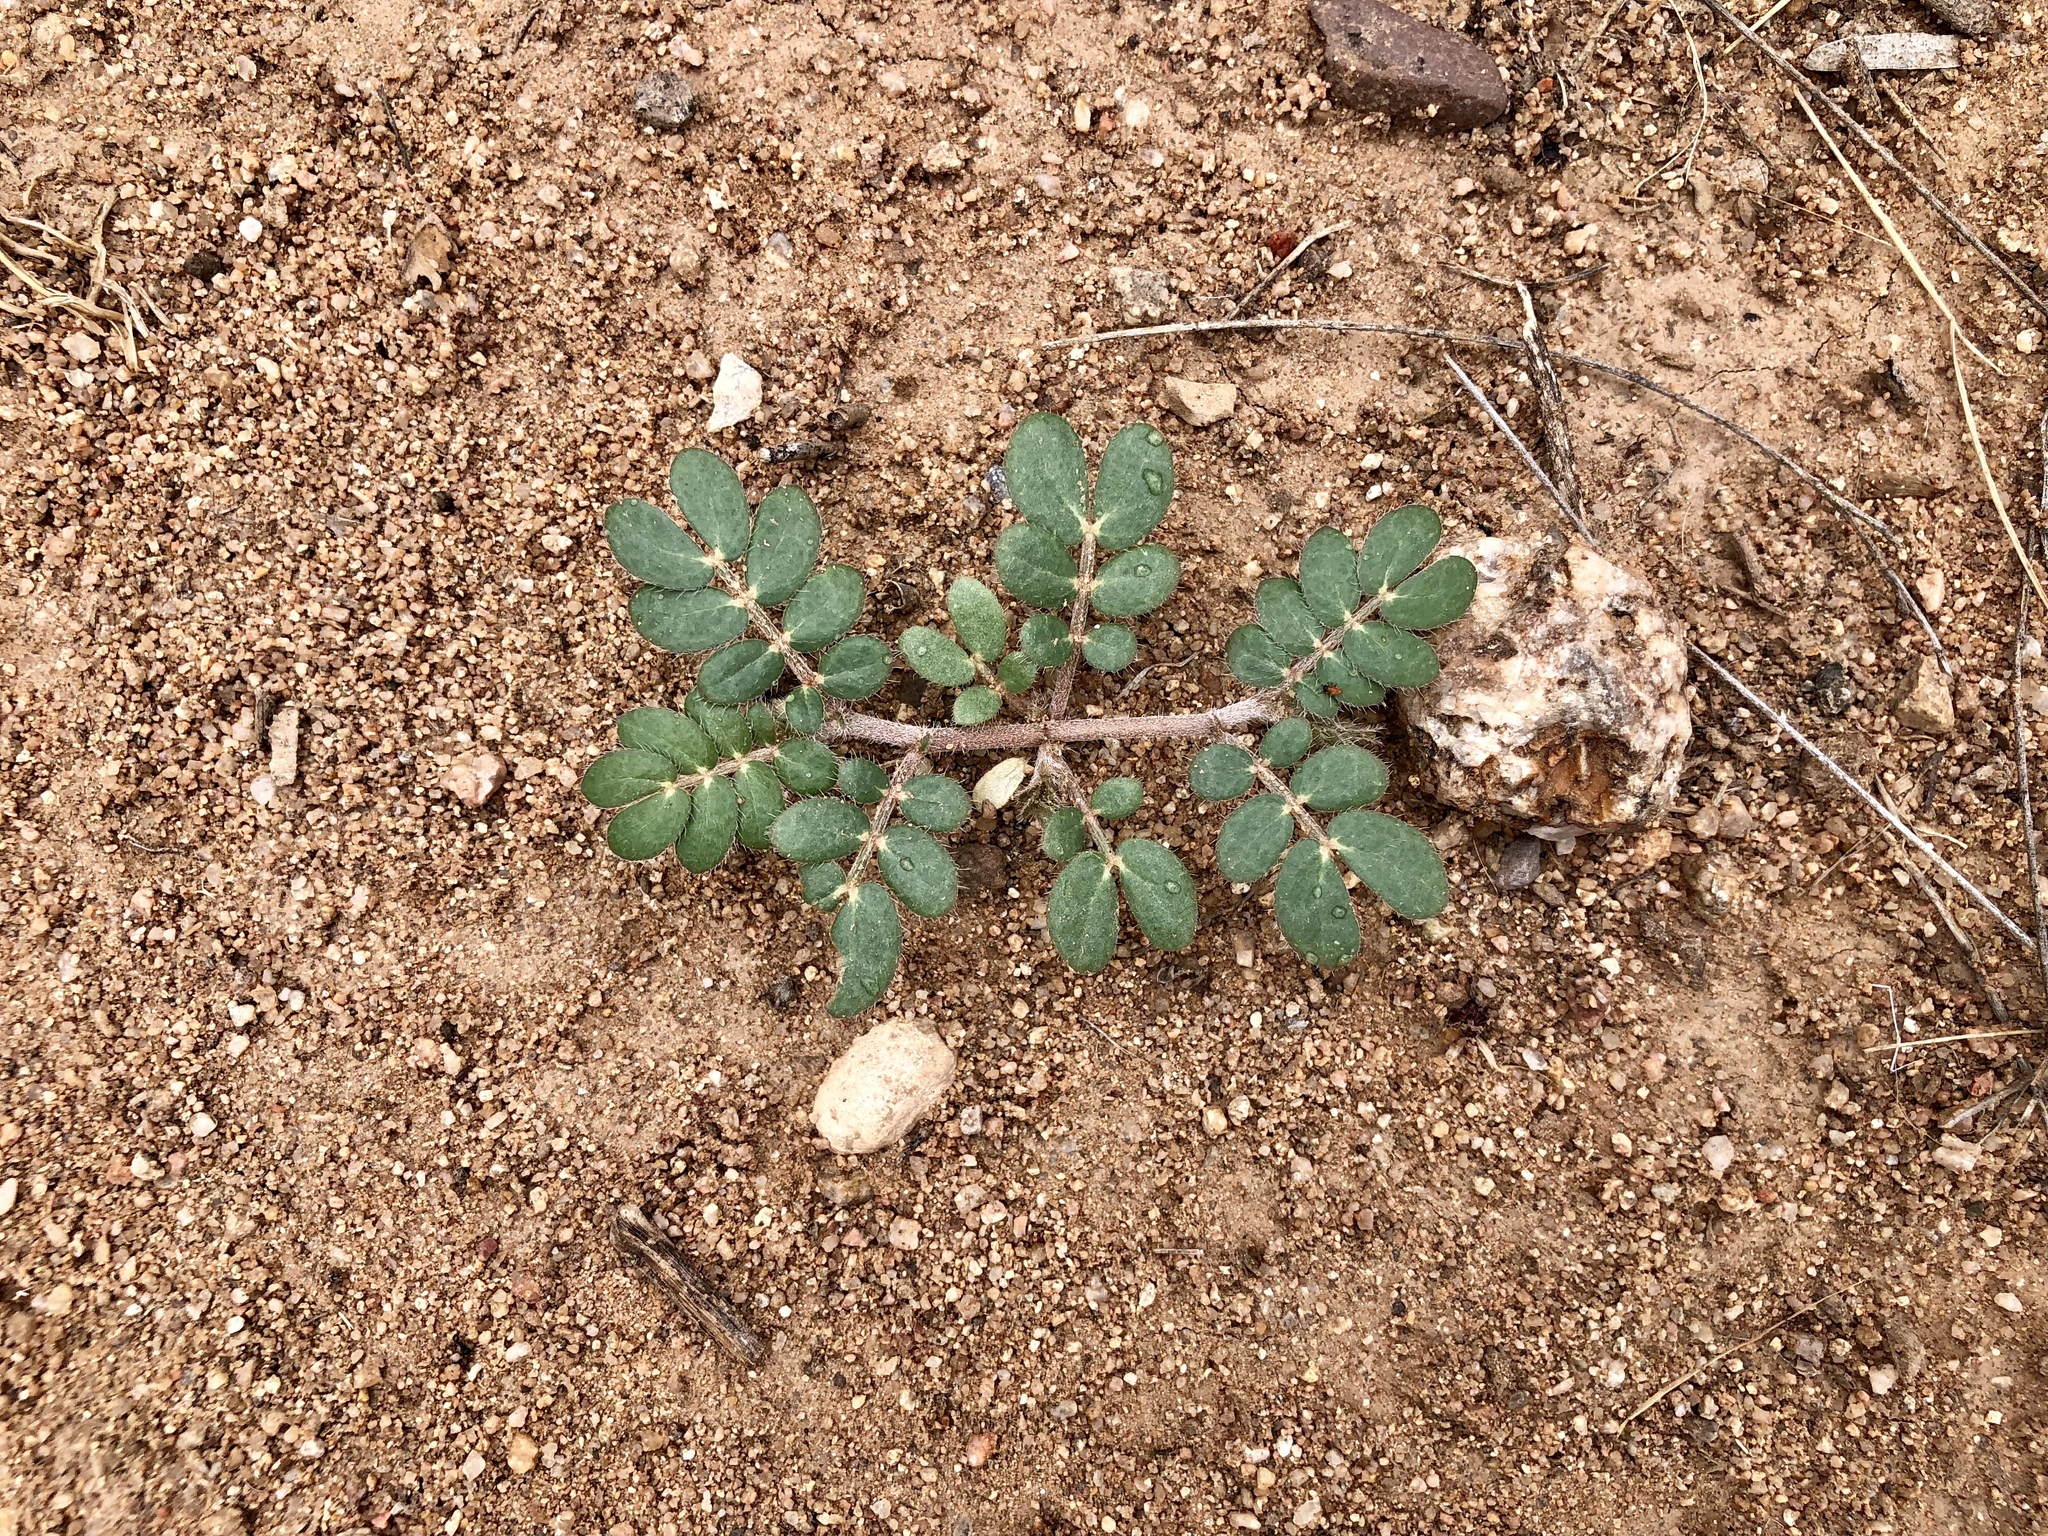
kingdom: Plantae
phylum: Tracheophyta
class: Magnoliopsida
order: Zygophyllales
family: Zygophyllaceae
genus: Kallstroemia
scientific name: Kallstroemia parviflora
